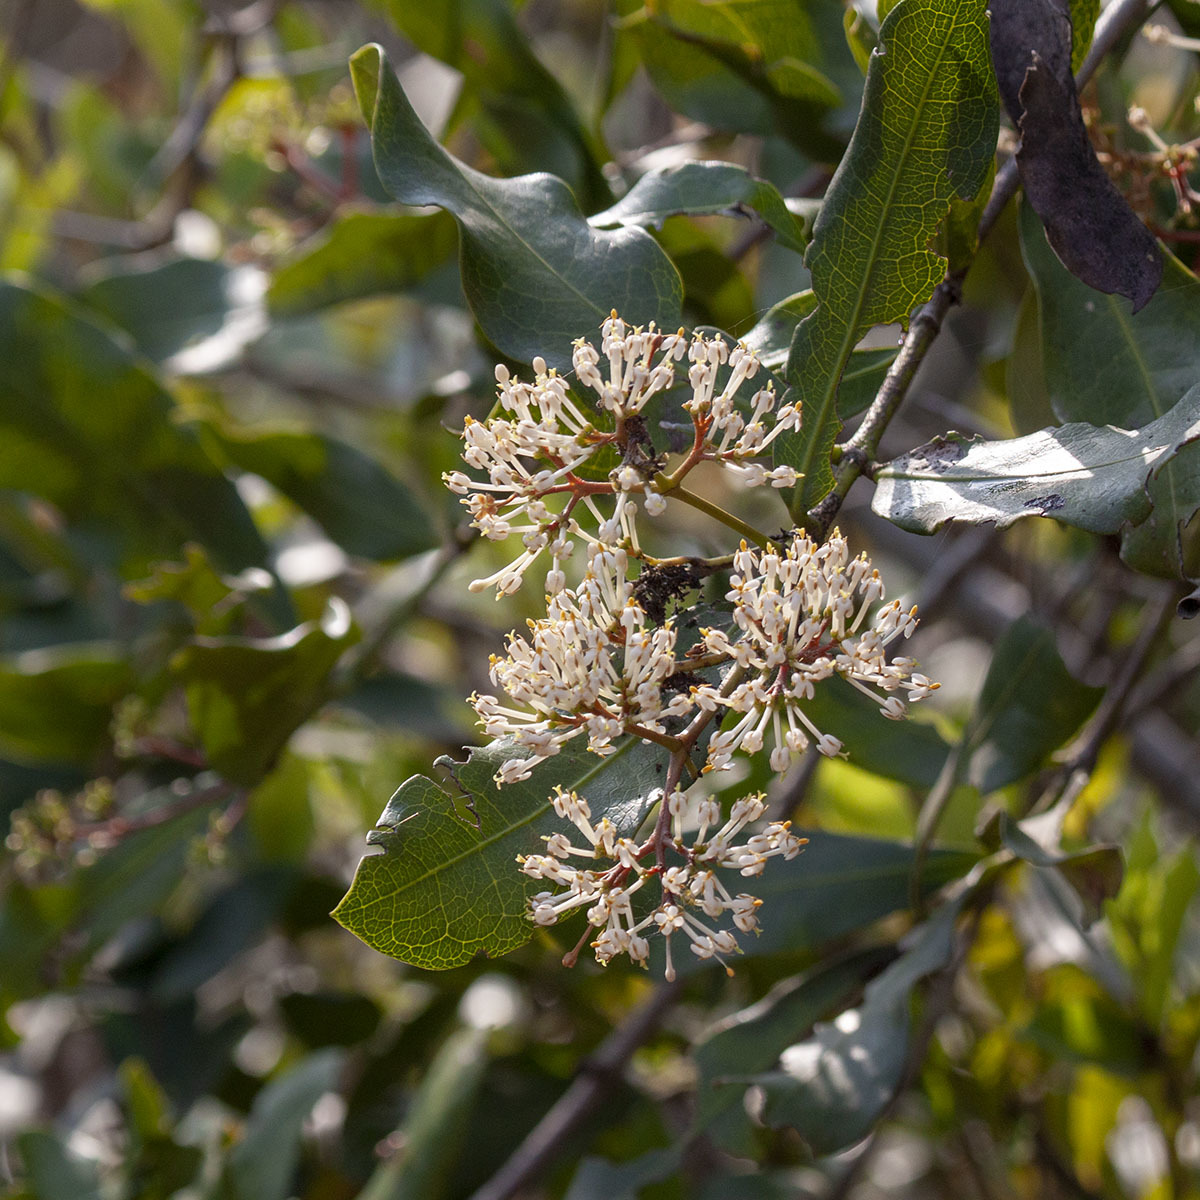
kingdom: Plantae
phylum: Tracheophyta
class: Magnoliopsida
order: Gentianales
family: Rubiaceae
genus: Ixora
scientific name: Ixora brachiata
